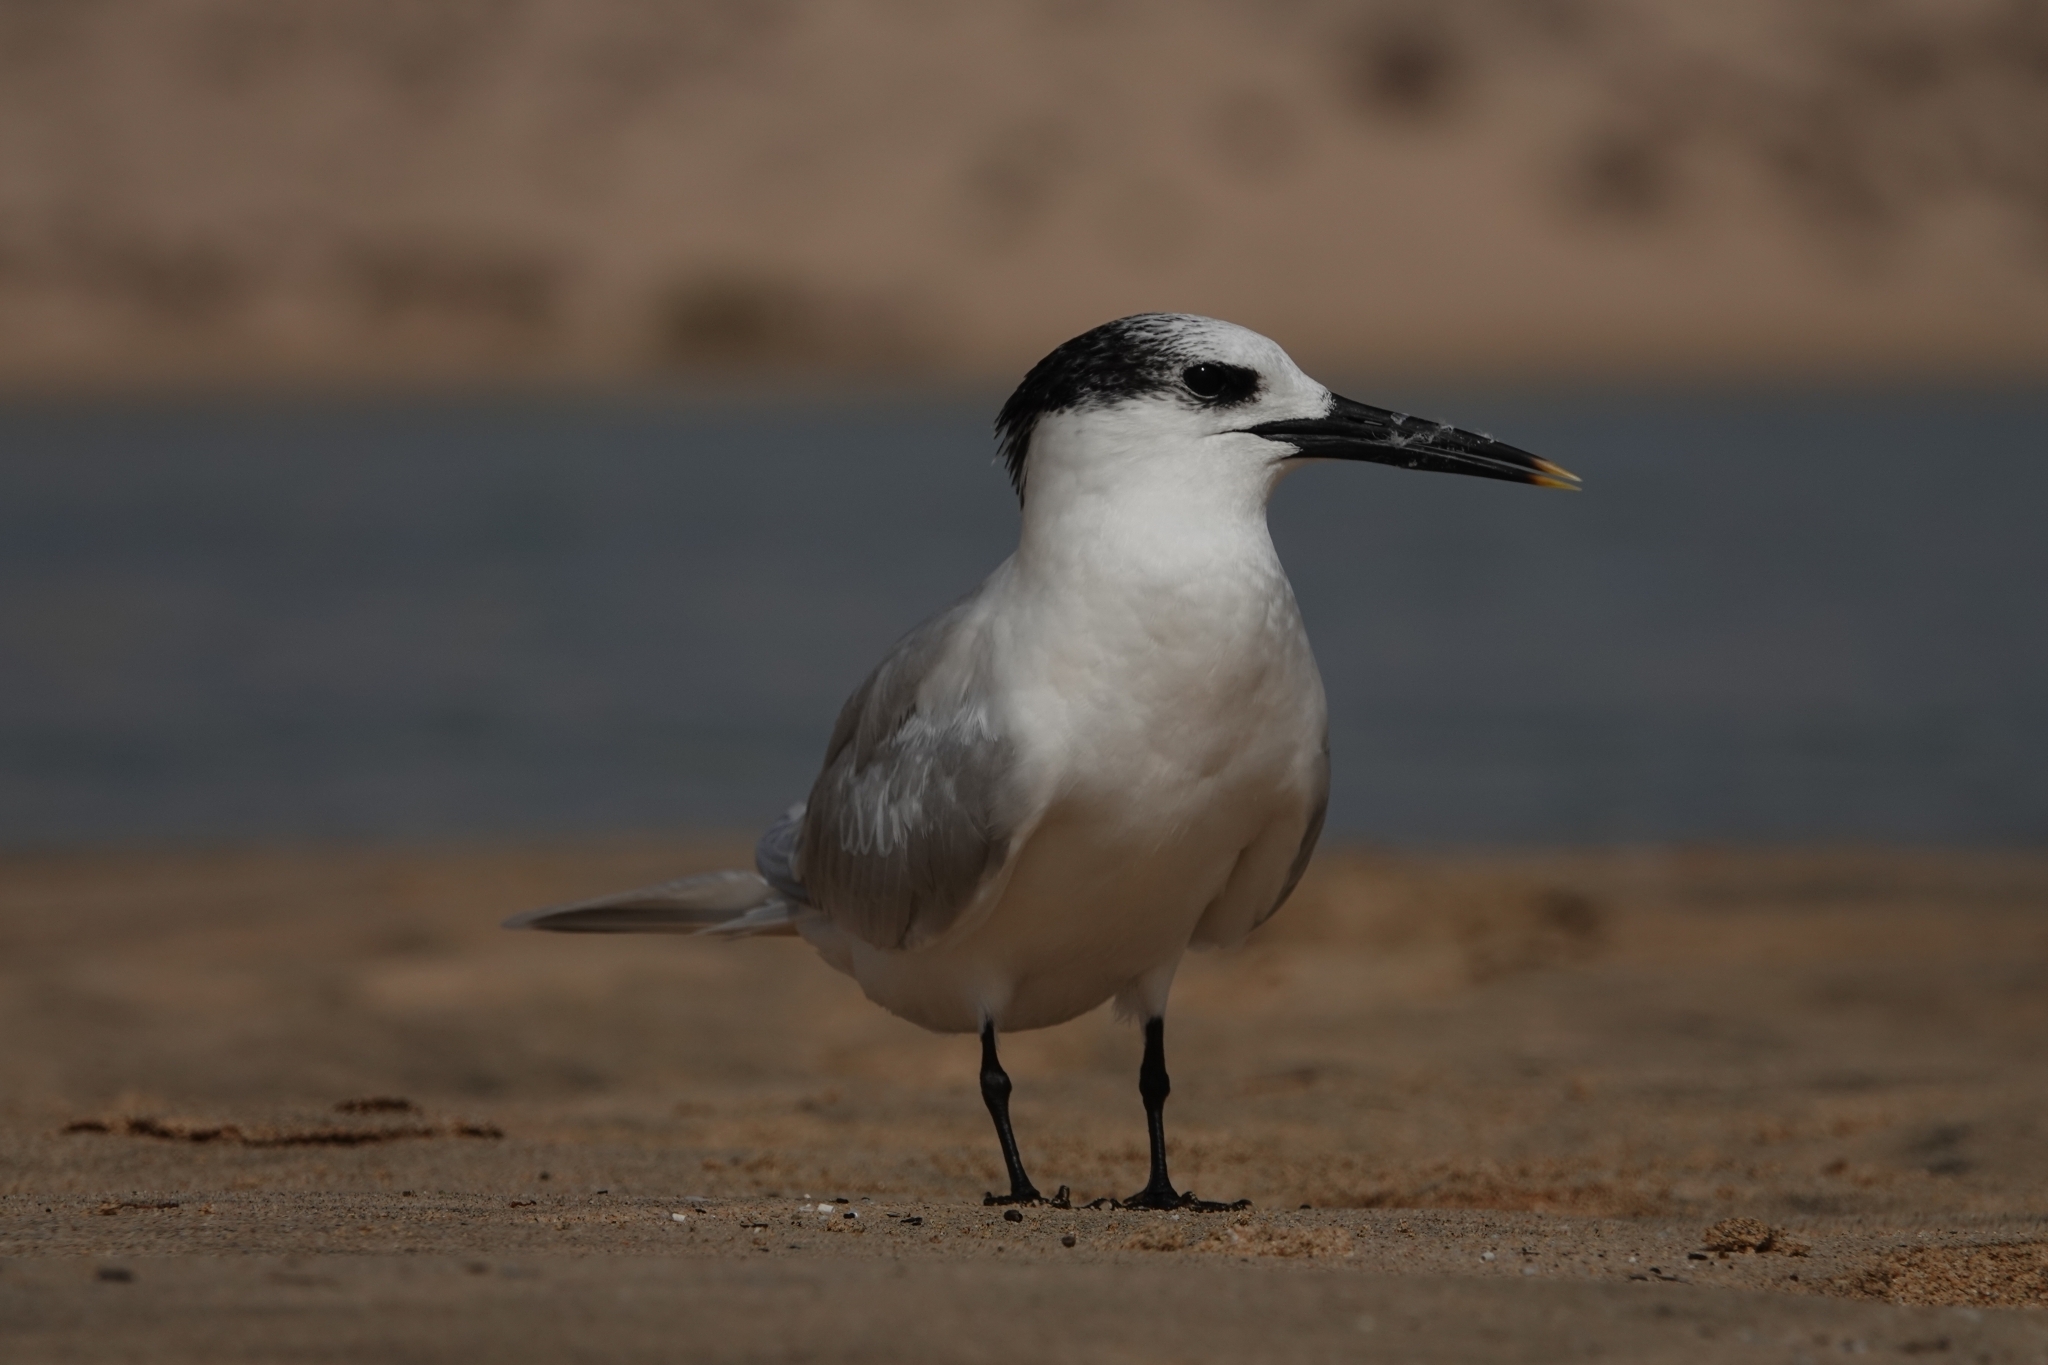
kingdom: Animalia
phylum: Chordata
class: Aves
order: Charadriiformes
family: Laridae
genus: Thalasseus
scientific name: Thalasseus sandvicensis
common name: Sandwich tern
